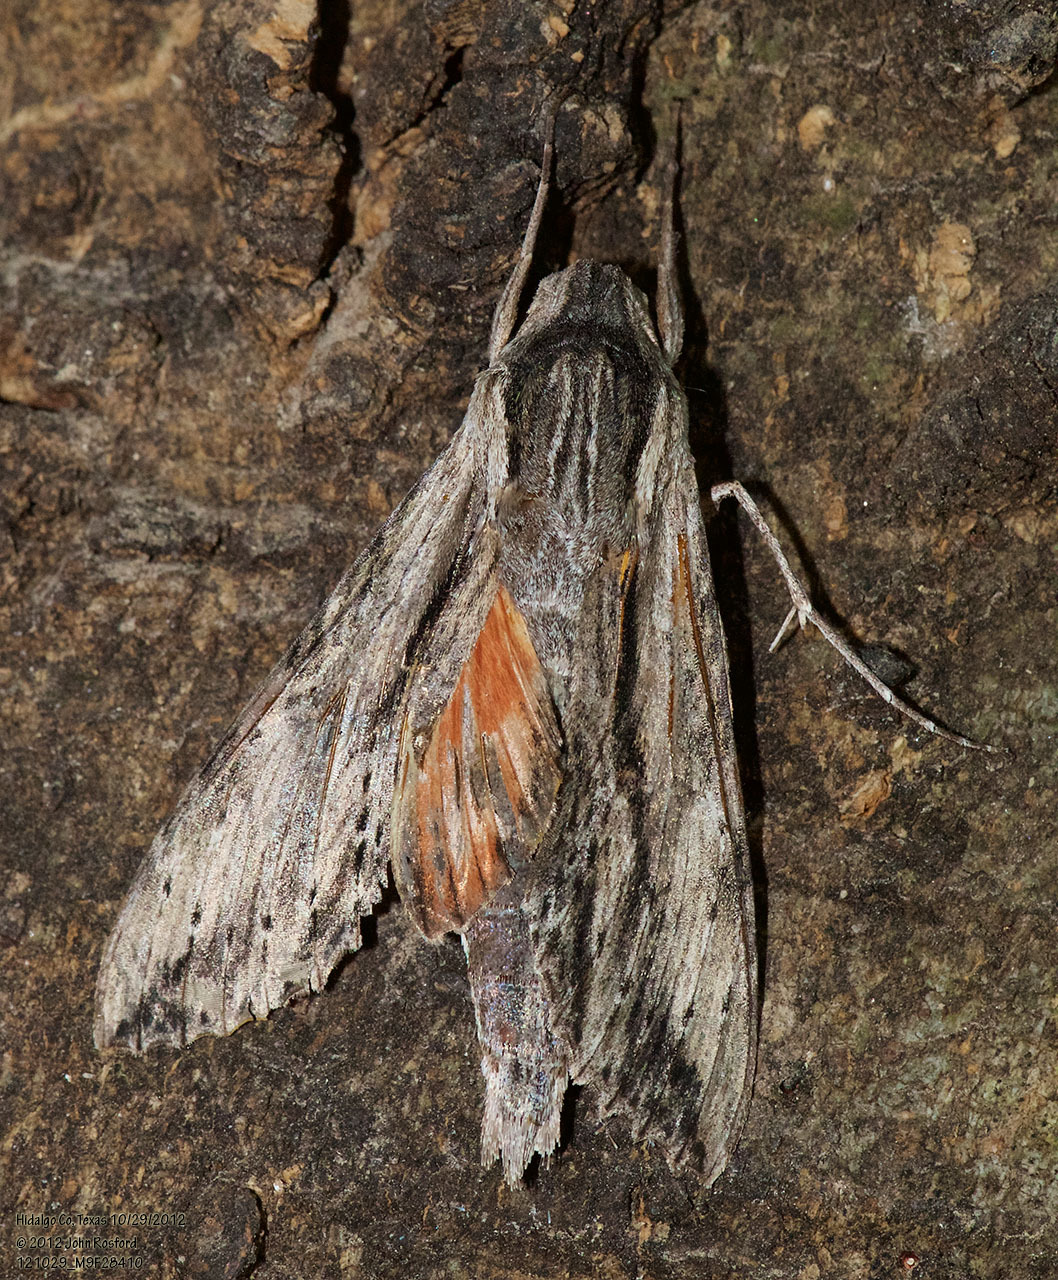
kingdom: Animalia
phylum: Arthropoda
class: Insecta
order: Lepidoptera
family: Sphingidae
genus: Erinnyis
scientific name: Erinnyis obscura
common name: Obscure sphinx
